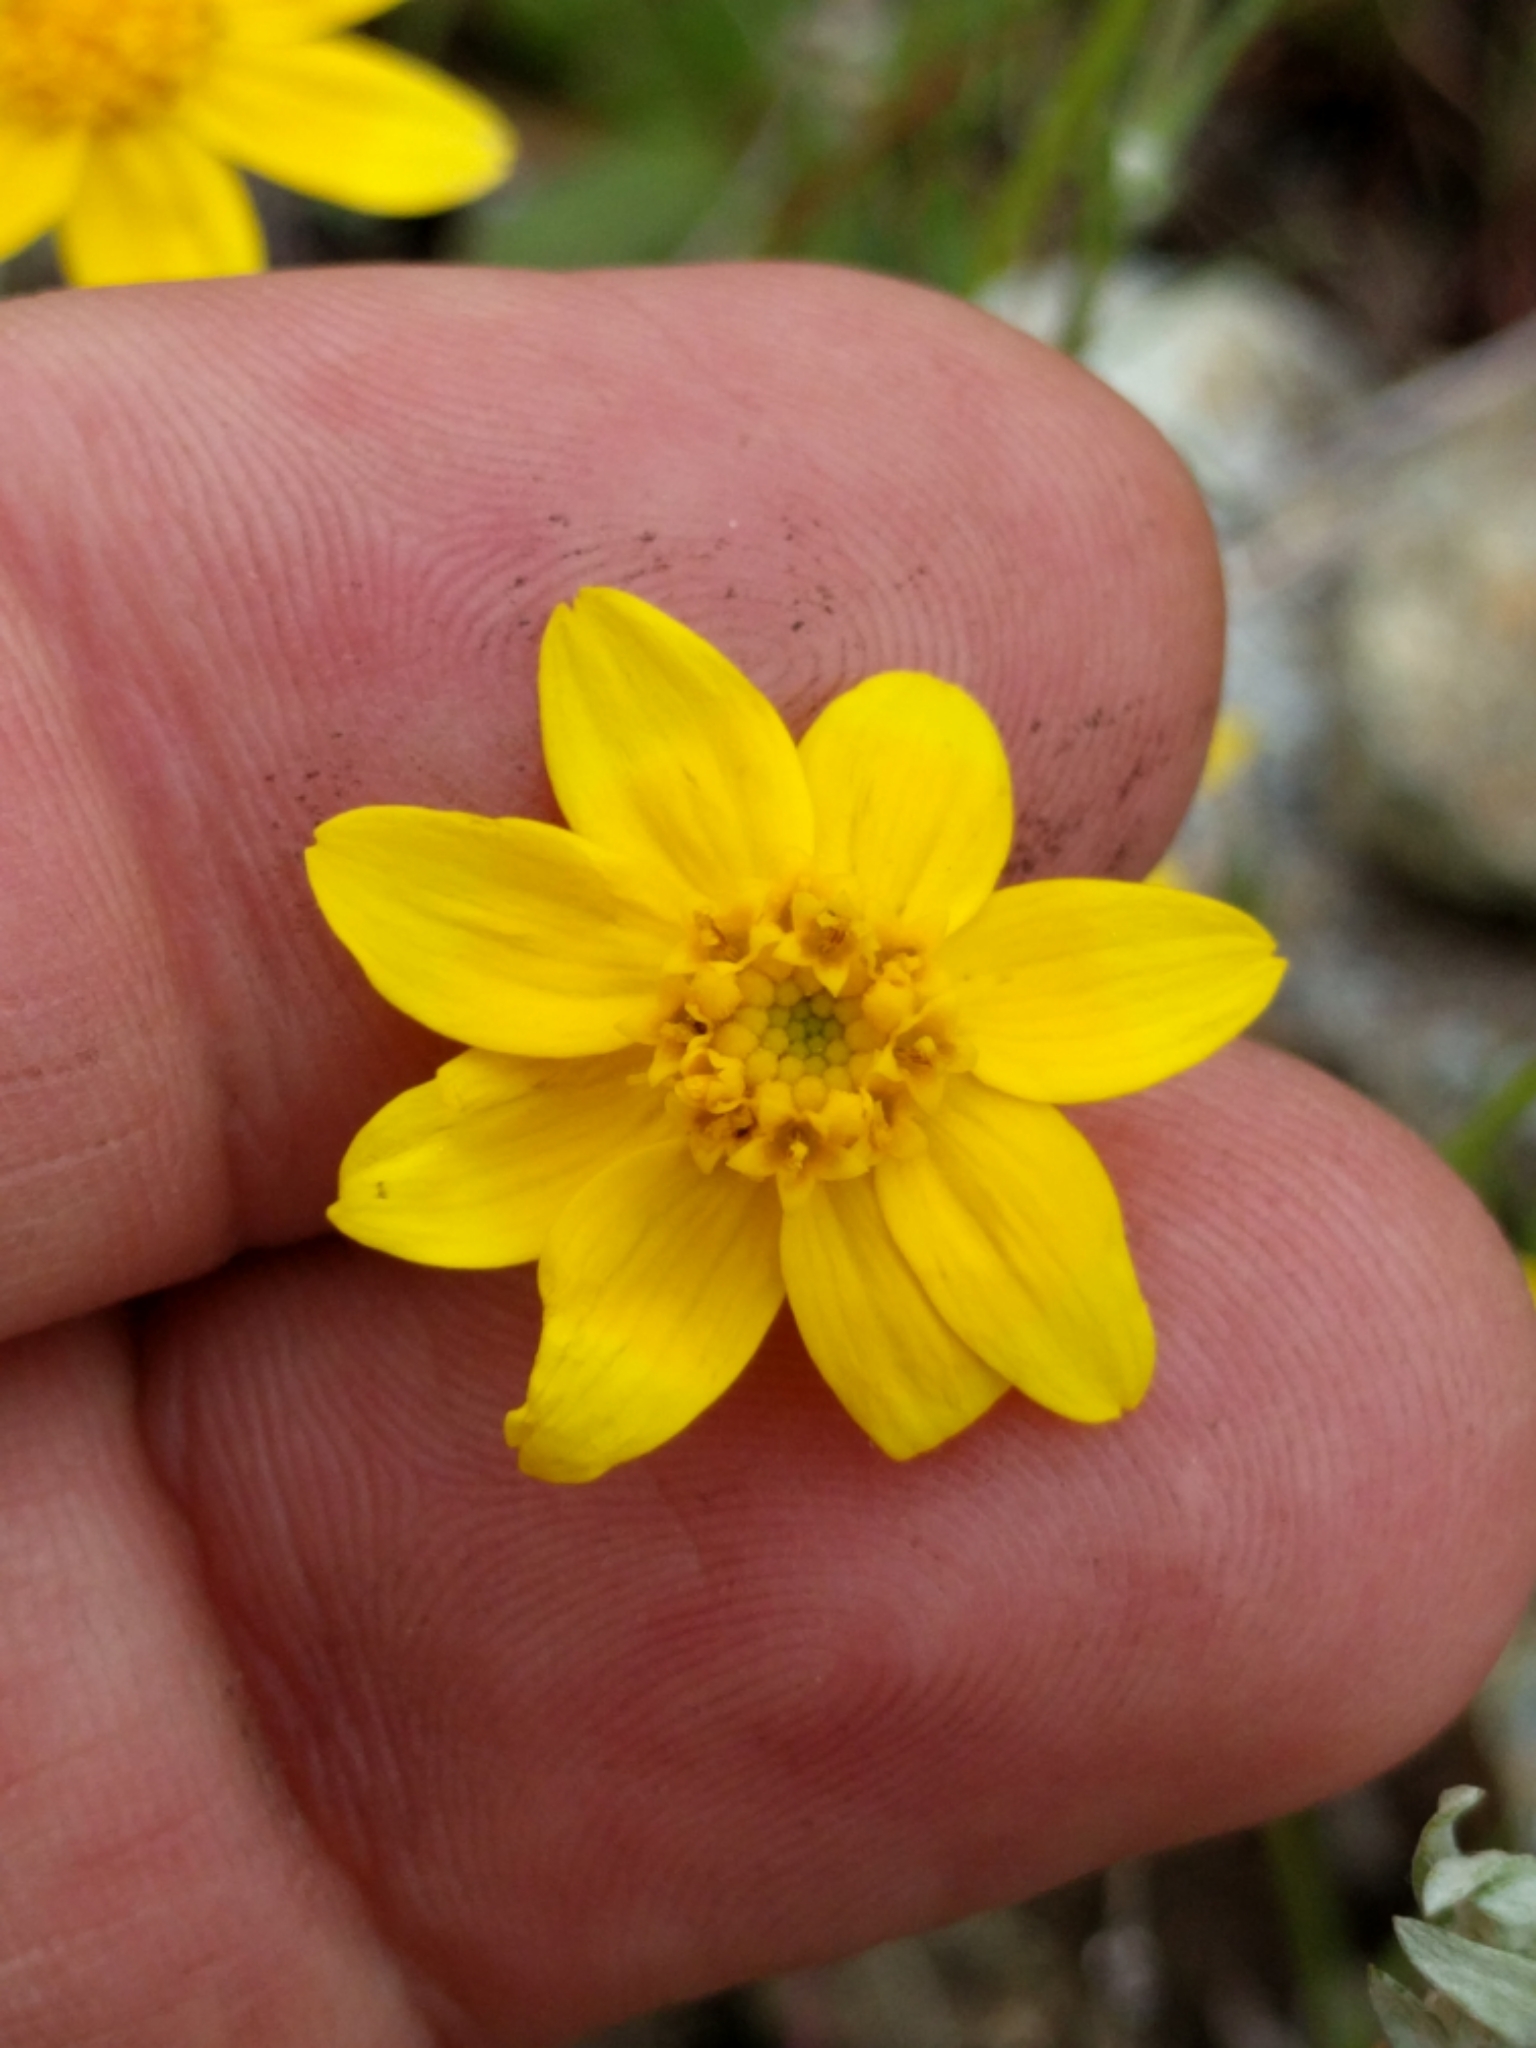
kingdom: Plantae
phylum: Tracheophyta
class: Magnoliopsida
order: Asterales
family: Asteraceae
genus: Pseudobahia
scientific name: Pseudobahia heermannii
